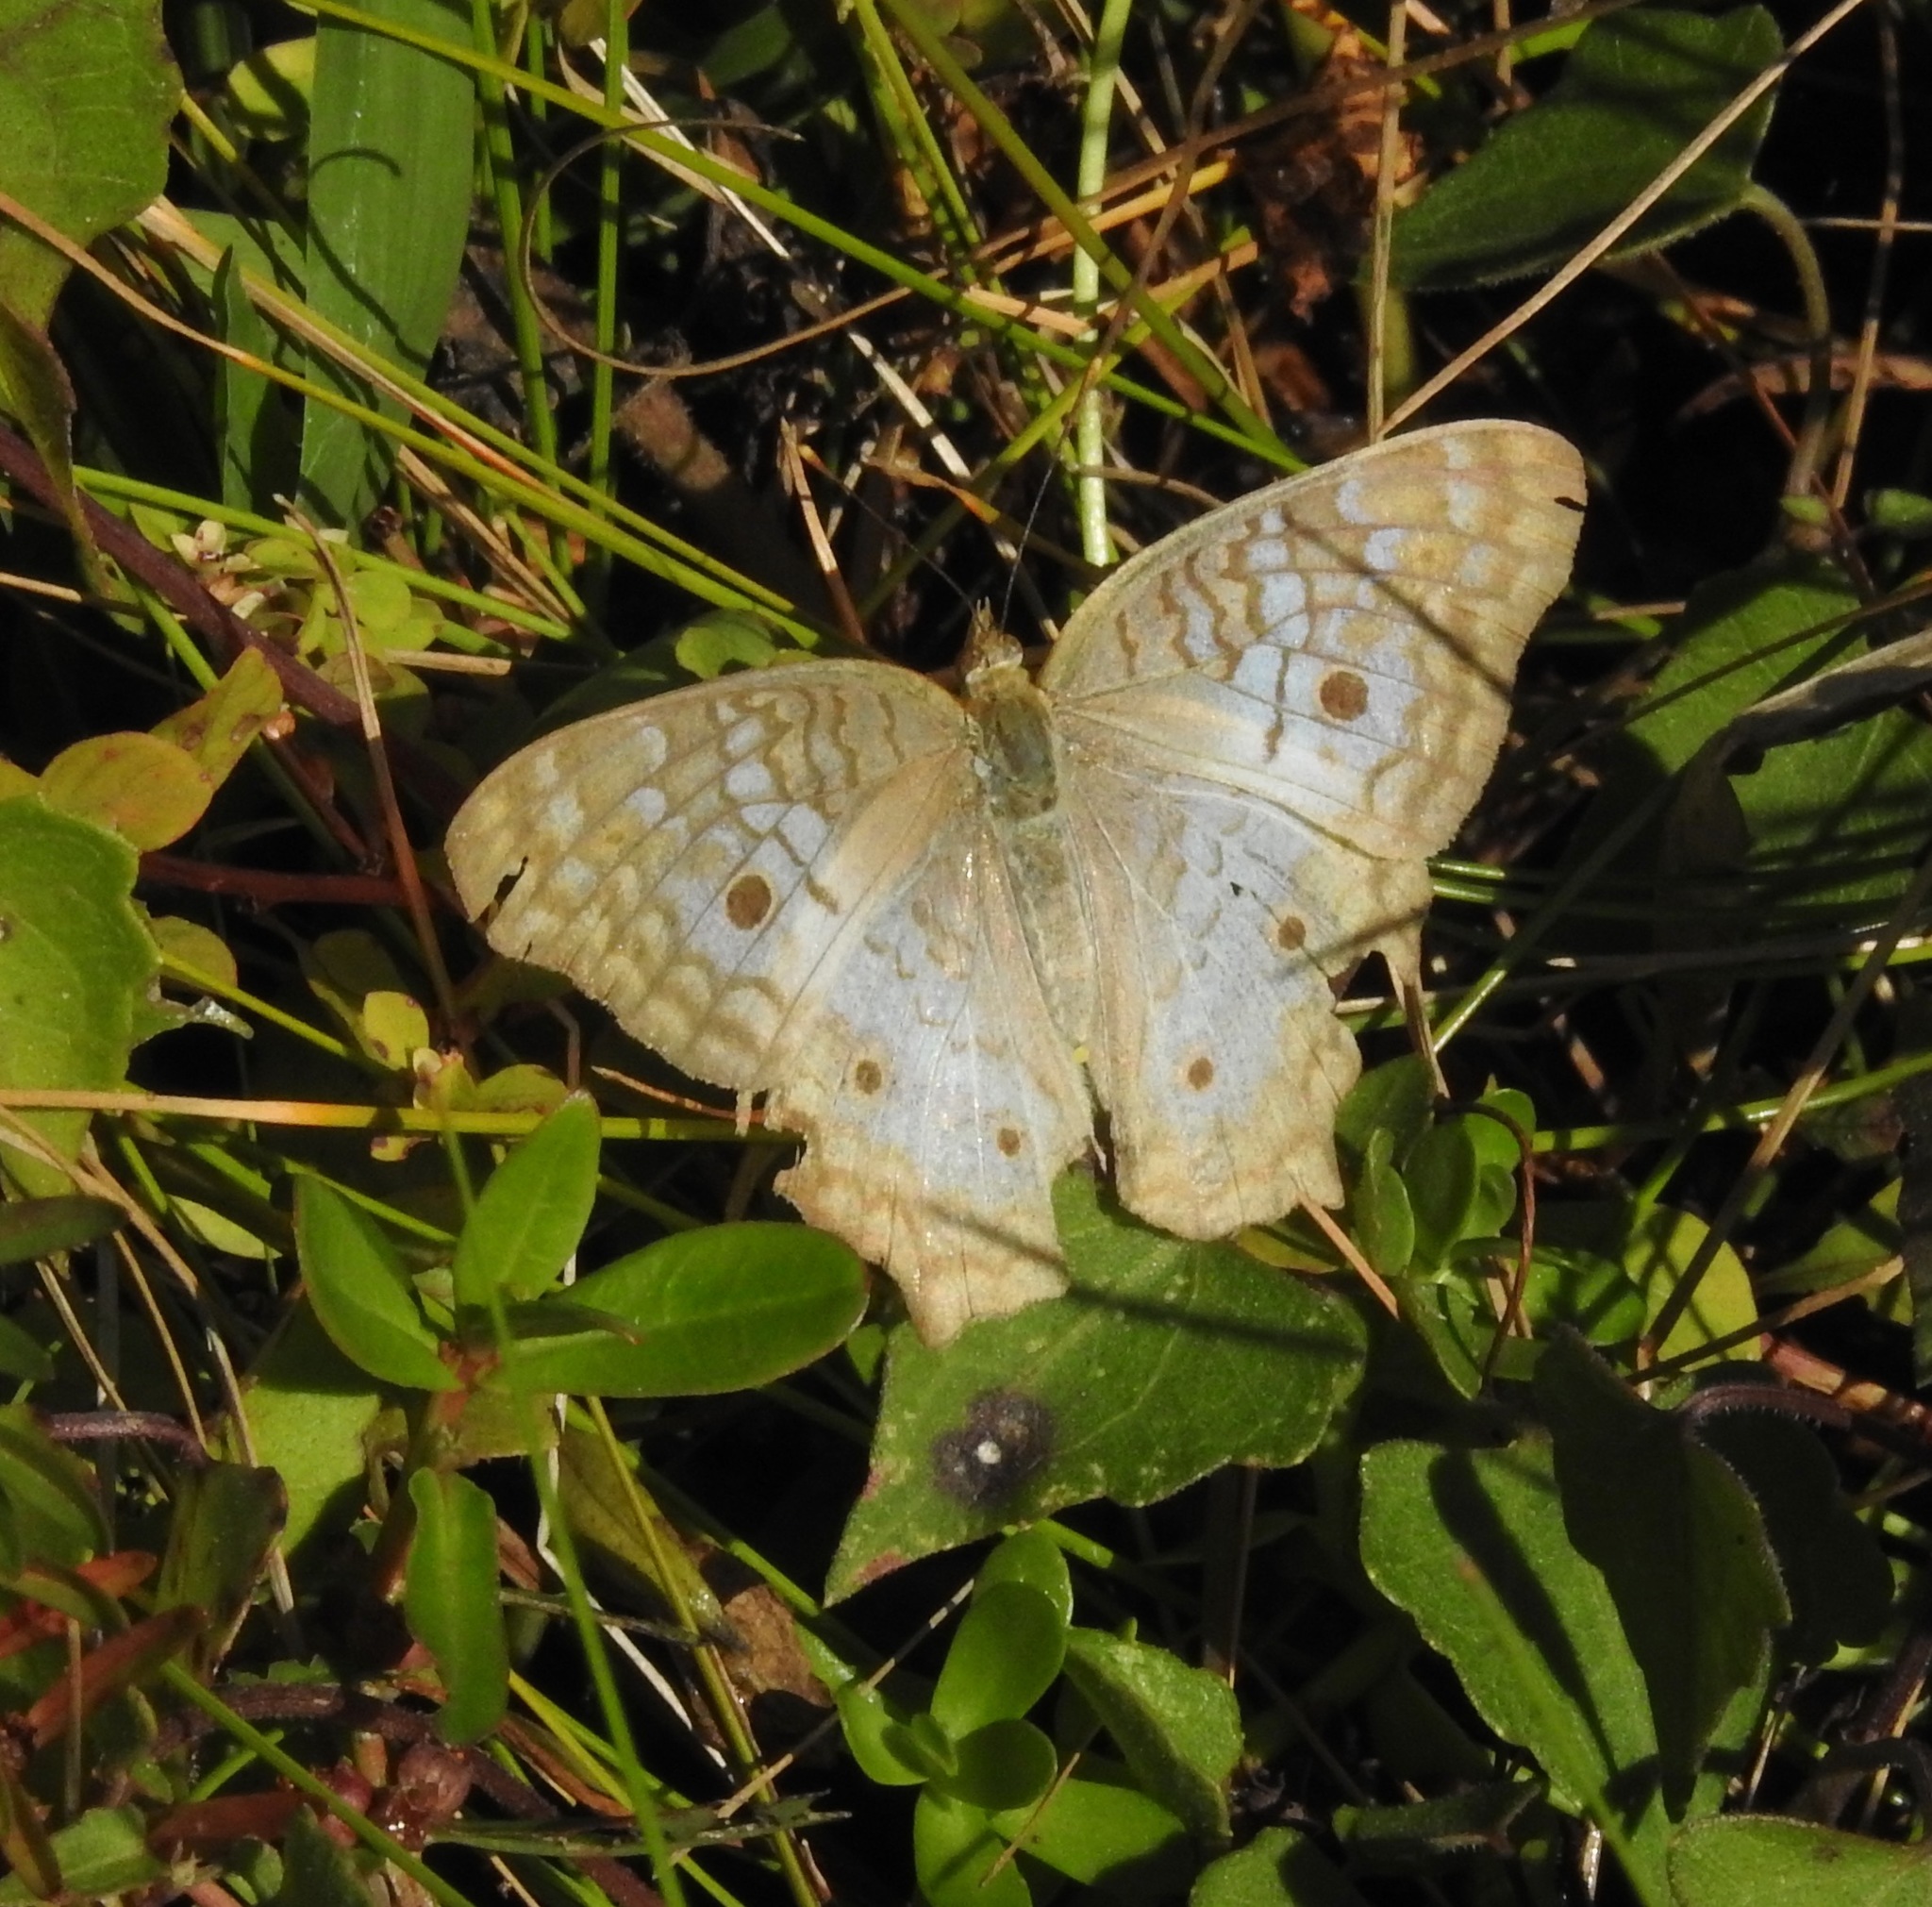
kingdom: Animalia
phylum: Arthropoda
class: Insecta
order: Lepidoptera
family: Nymphalidae
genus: Anartia
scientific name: Anartia jatrophae
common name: White peacock
